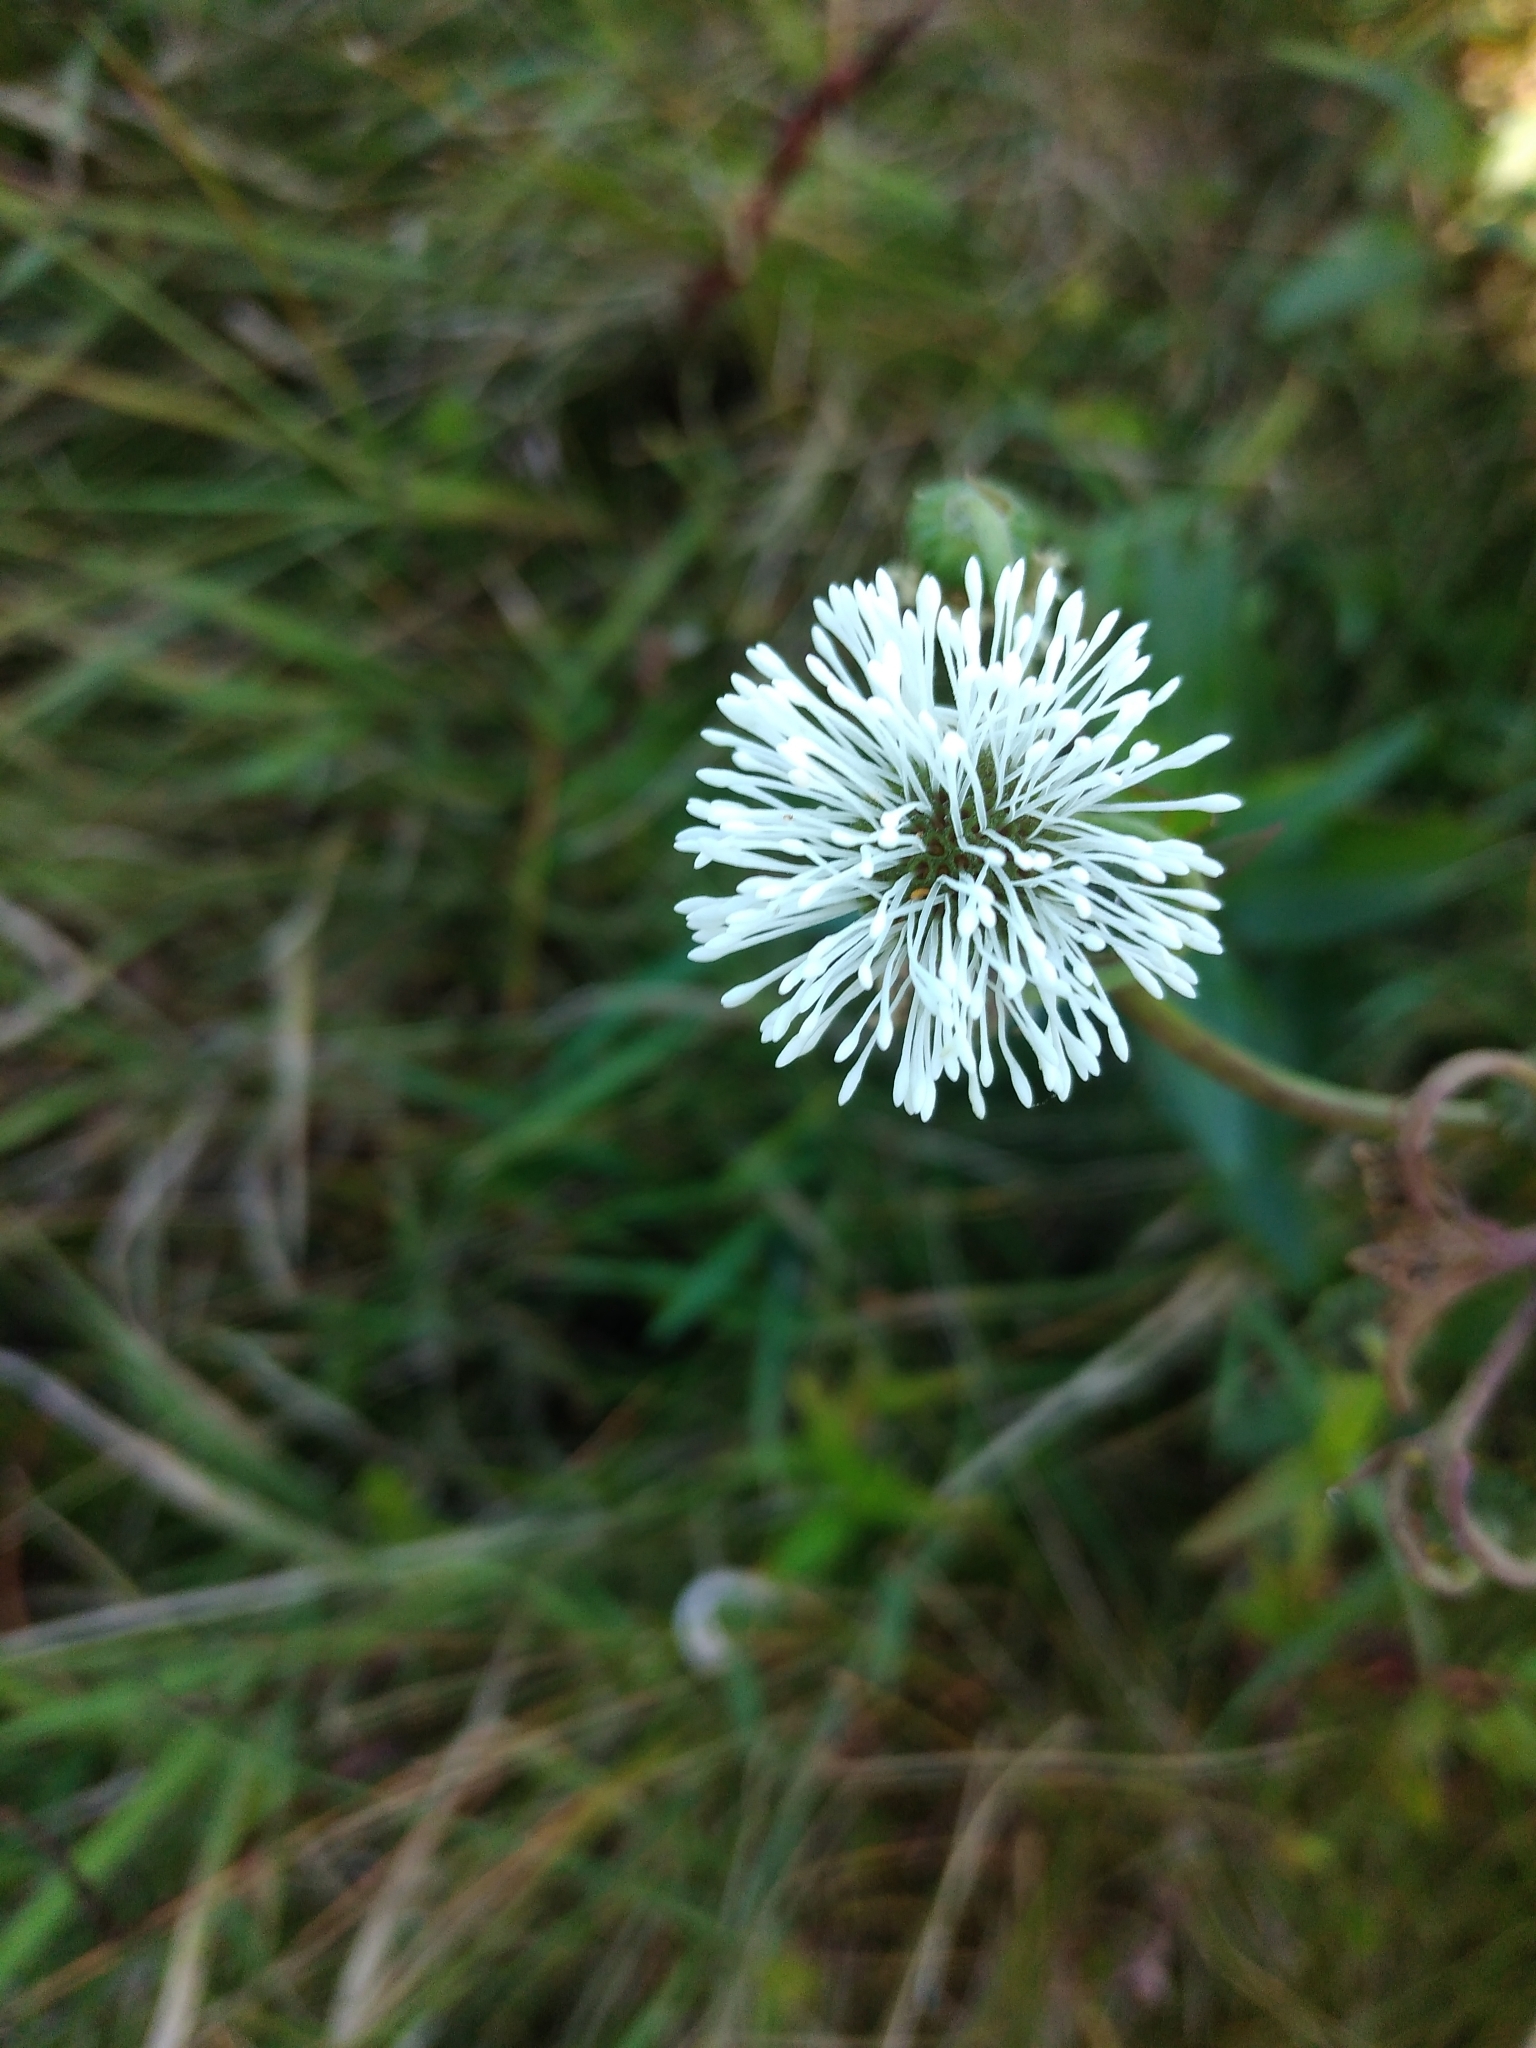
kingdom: Plantae
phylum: Tracheophyta
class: Magnoliopsida
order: Asterales
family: Asteraceae
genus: Gymnocoronis
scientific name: Gymnocoronis spilanthoides
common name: Senegal teaplant
